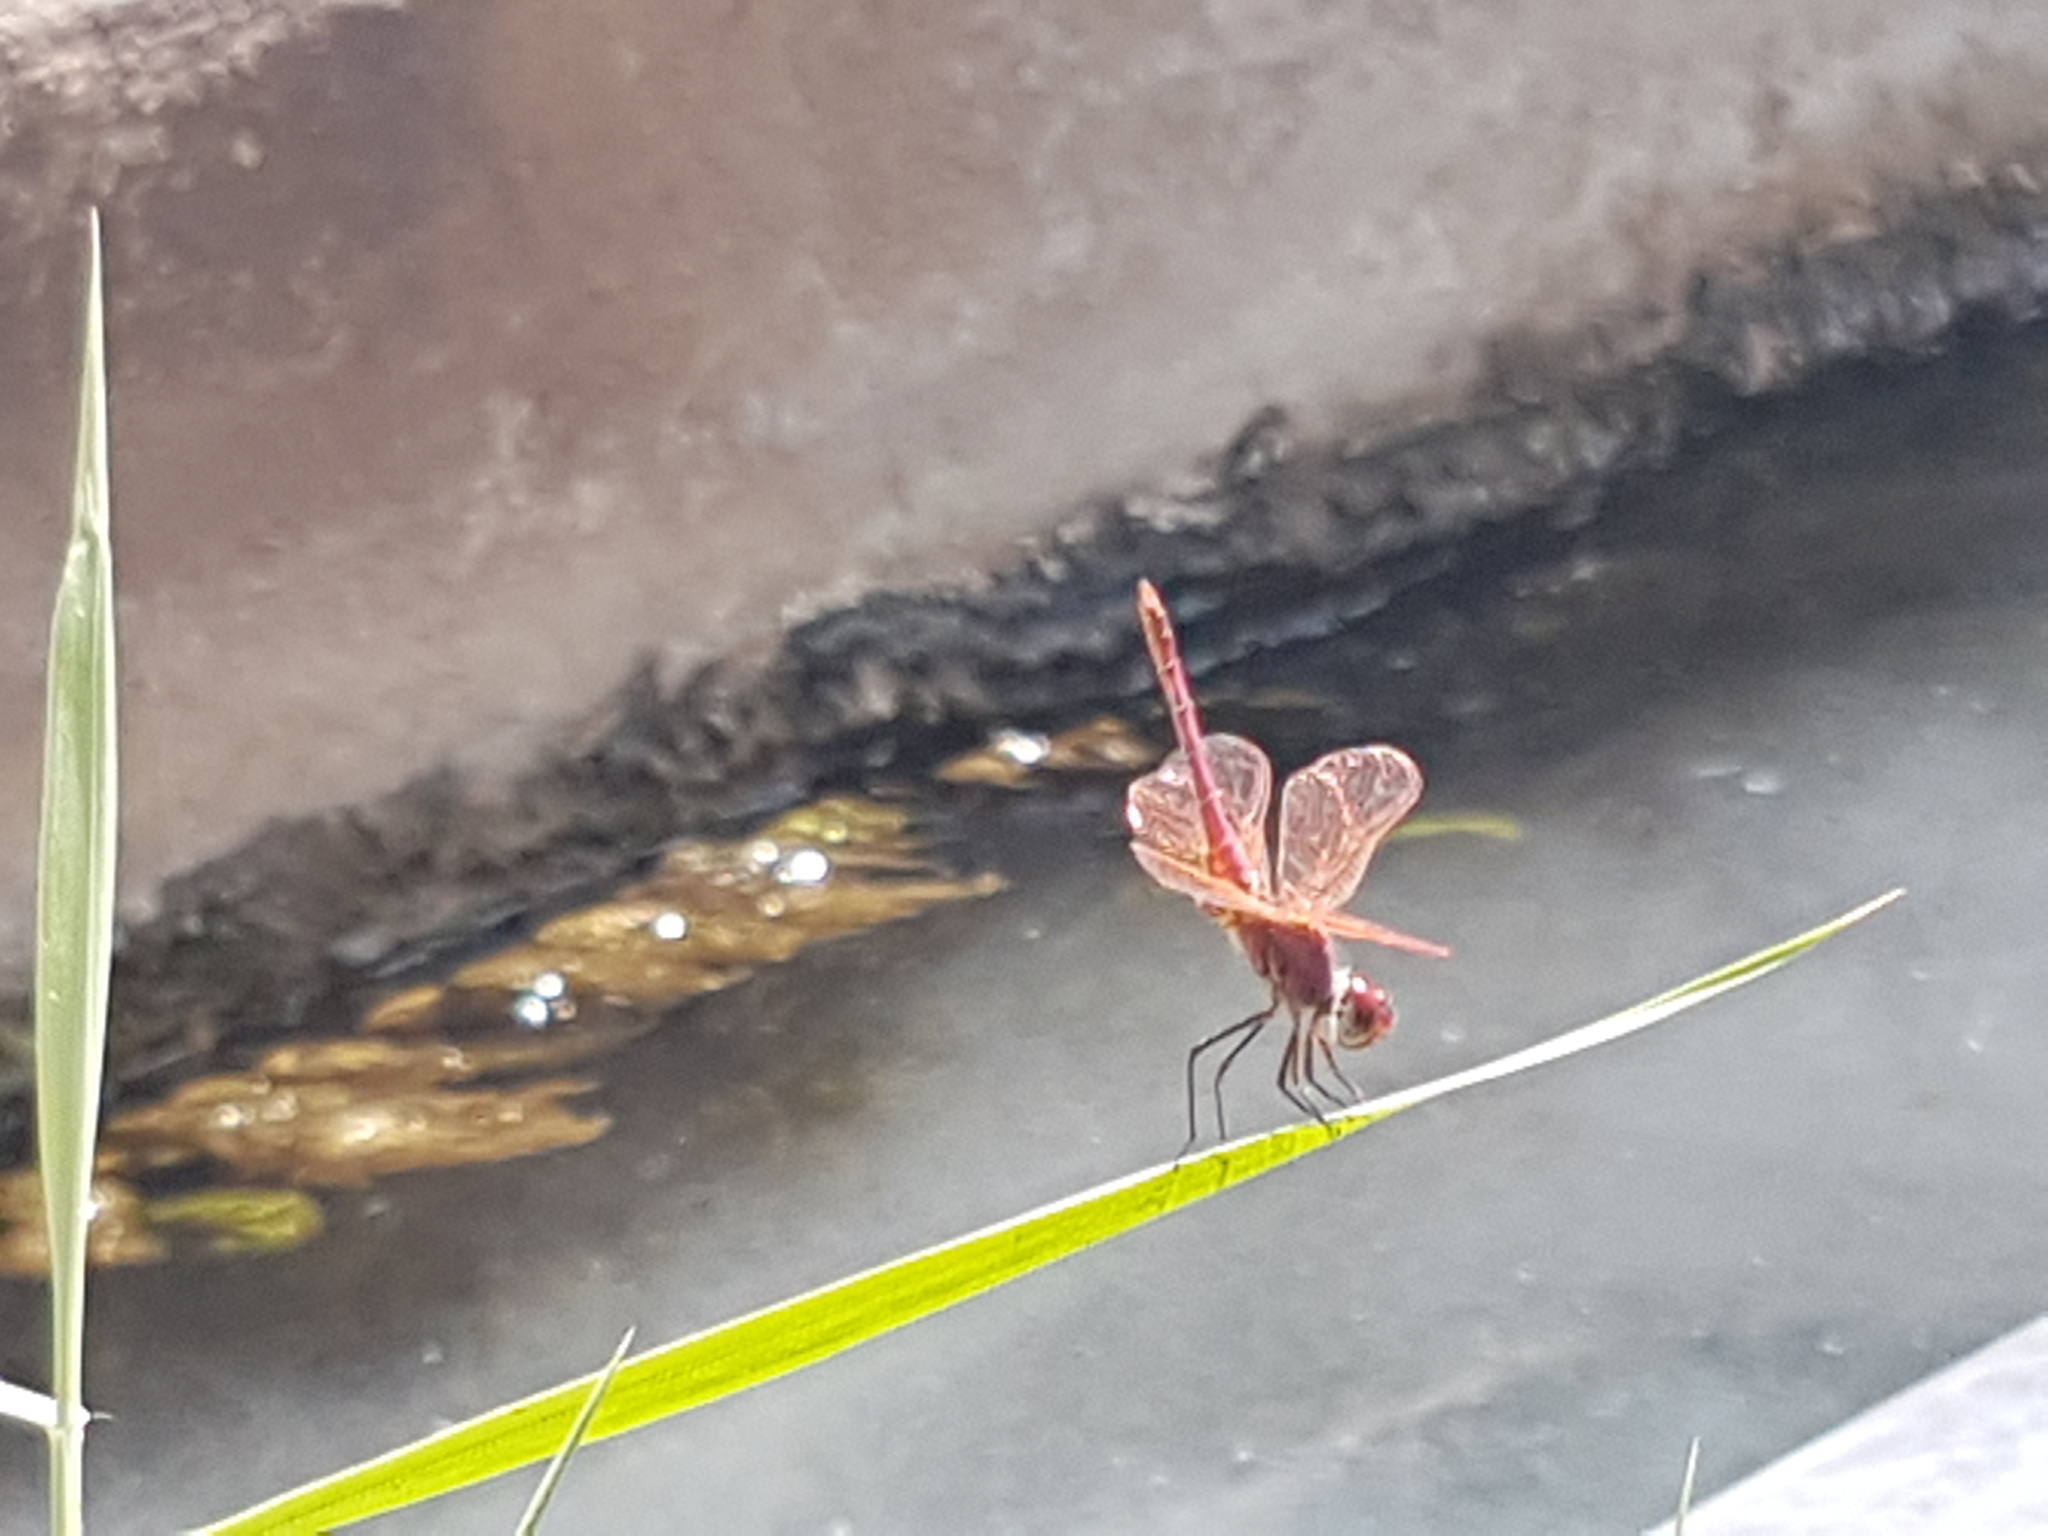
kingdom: Animalia
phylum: Arthropoda
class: Insecta
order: Odonata
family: Libellulidae
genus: Trithemis
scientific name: Trithemis annulata
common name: Violet dropwing
